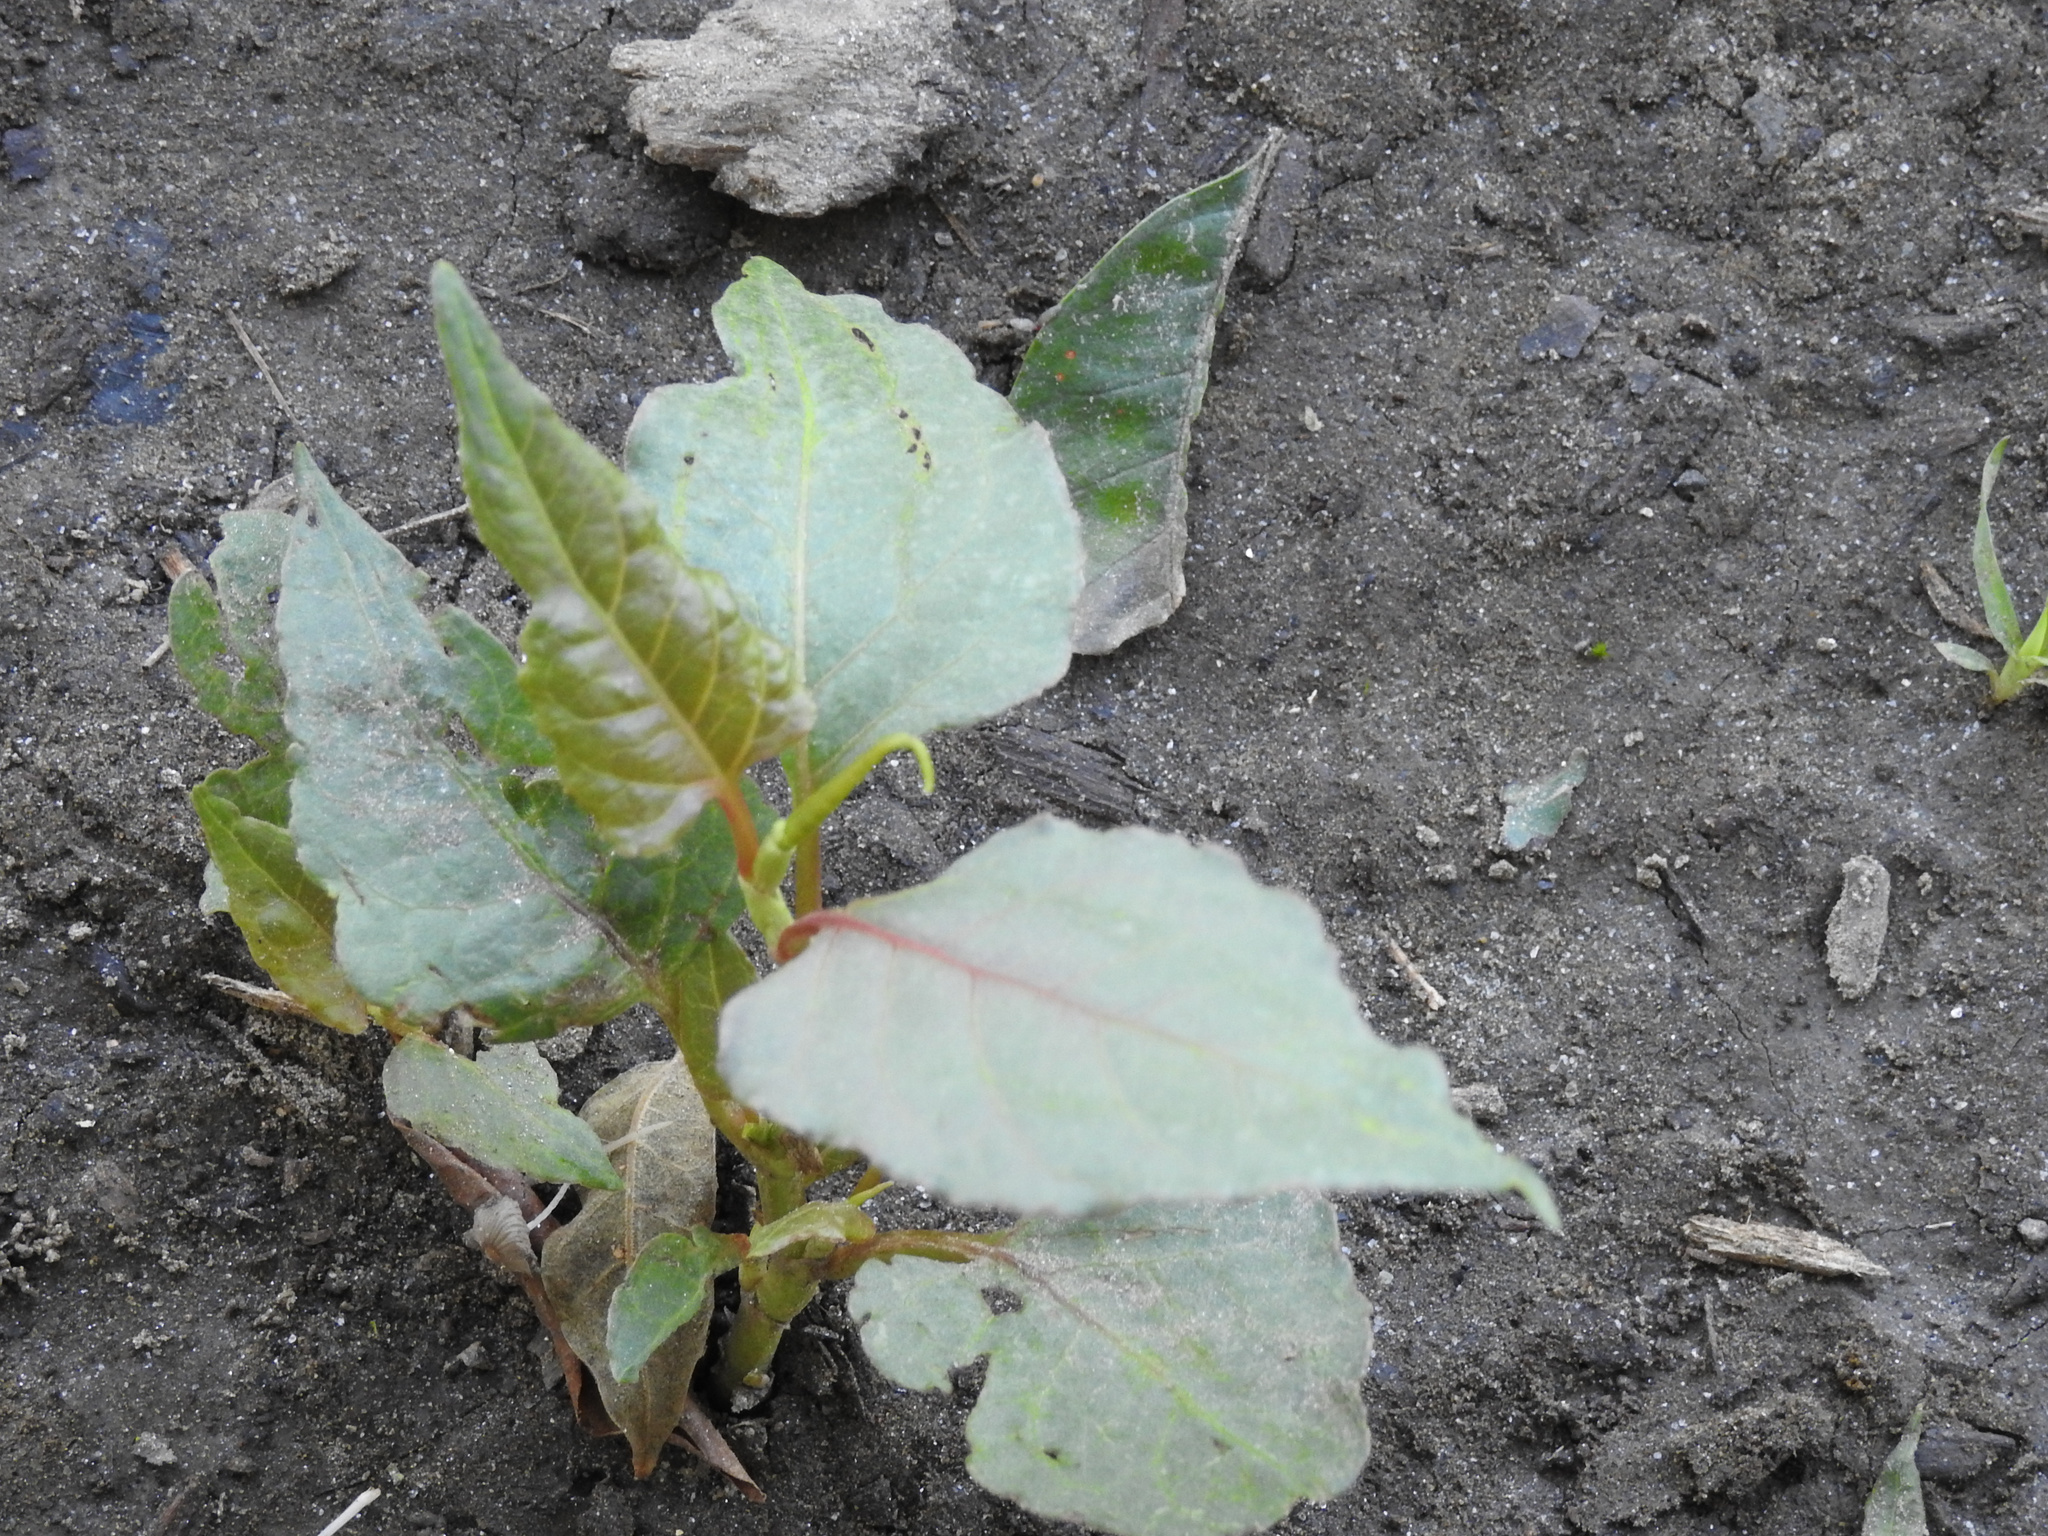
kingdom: Plantae
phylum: Tracheophyta
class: Magnoliopsida
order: Caryophyllales
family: Polygonaceae
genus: Reynoutria
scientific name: Reynoutria japonica
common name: Japanese knotweed
